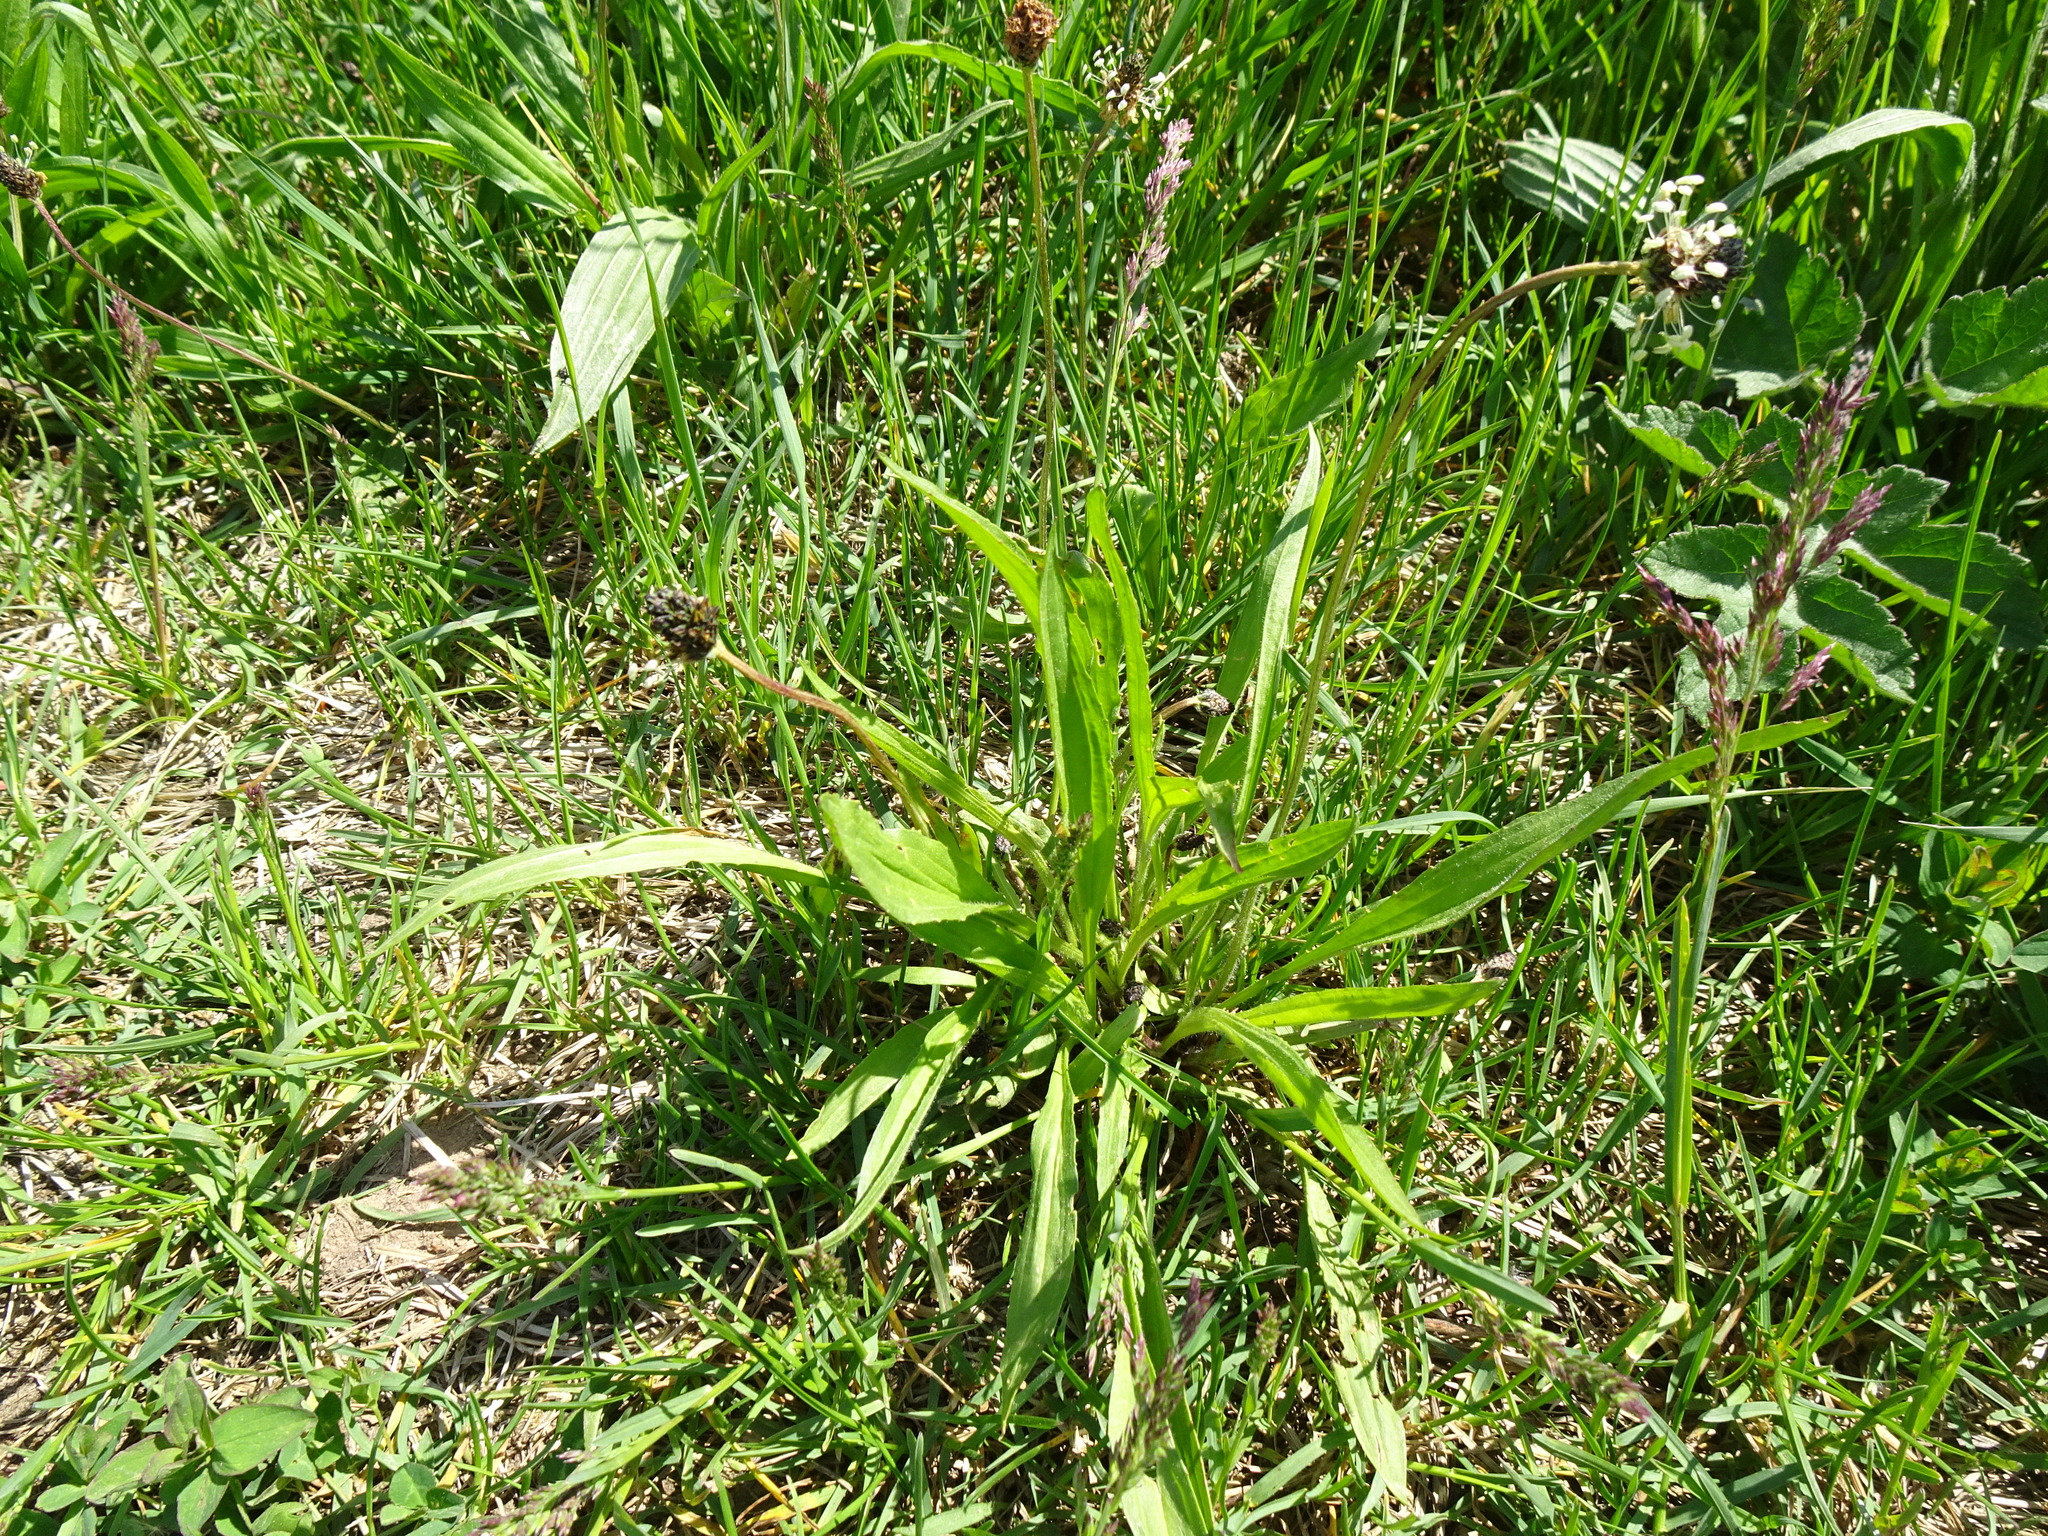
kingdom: Plantae
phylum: Tracheophyta
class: Magnoliopsida
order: Lamiales
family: Plantaginaceae
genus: Plantago
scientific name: Plantago lanceolata
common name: Ribwort plantain
